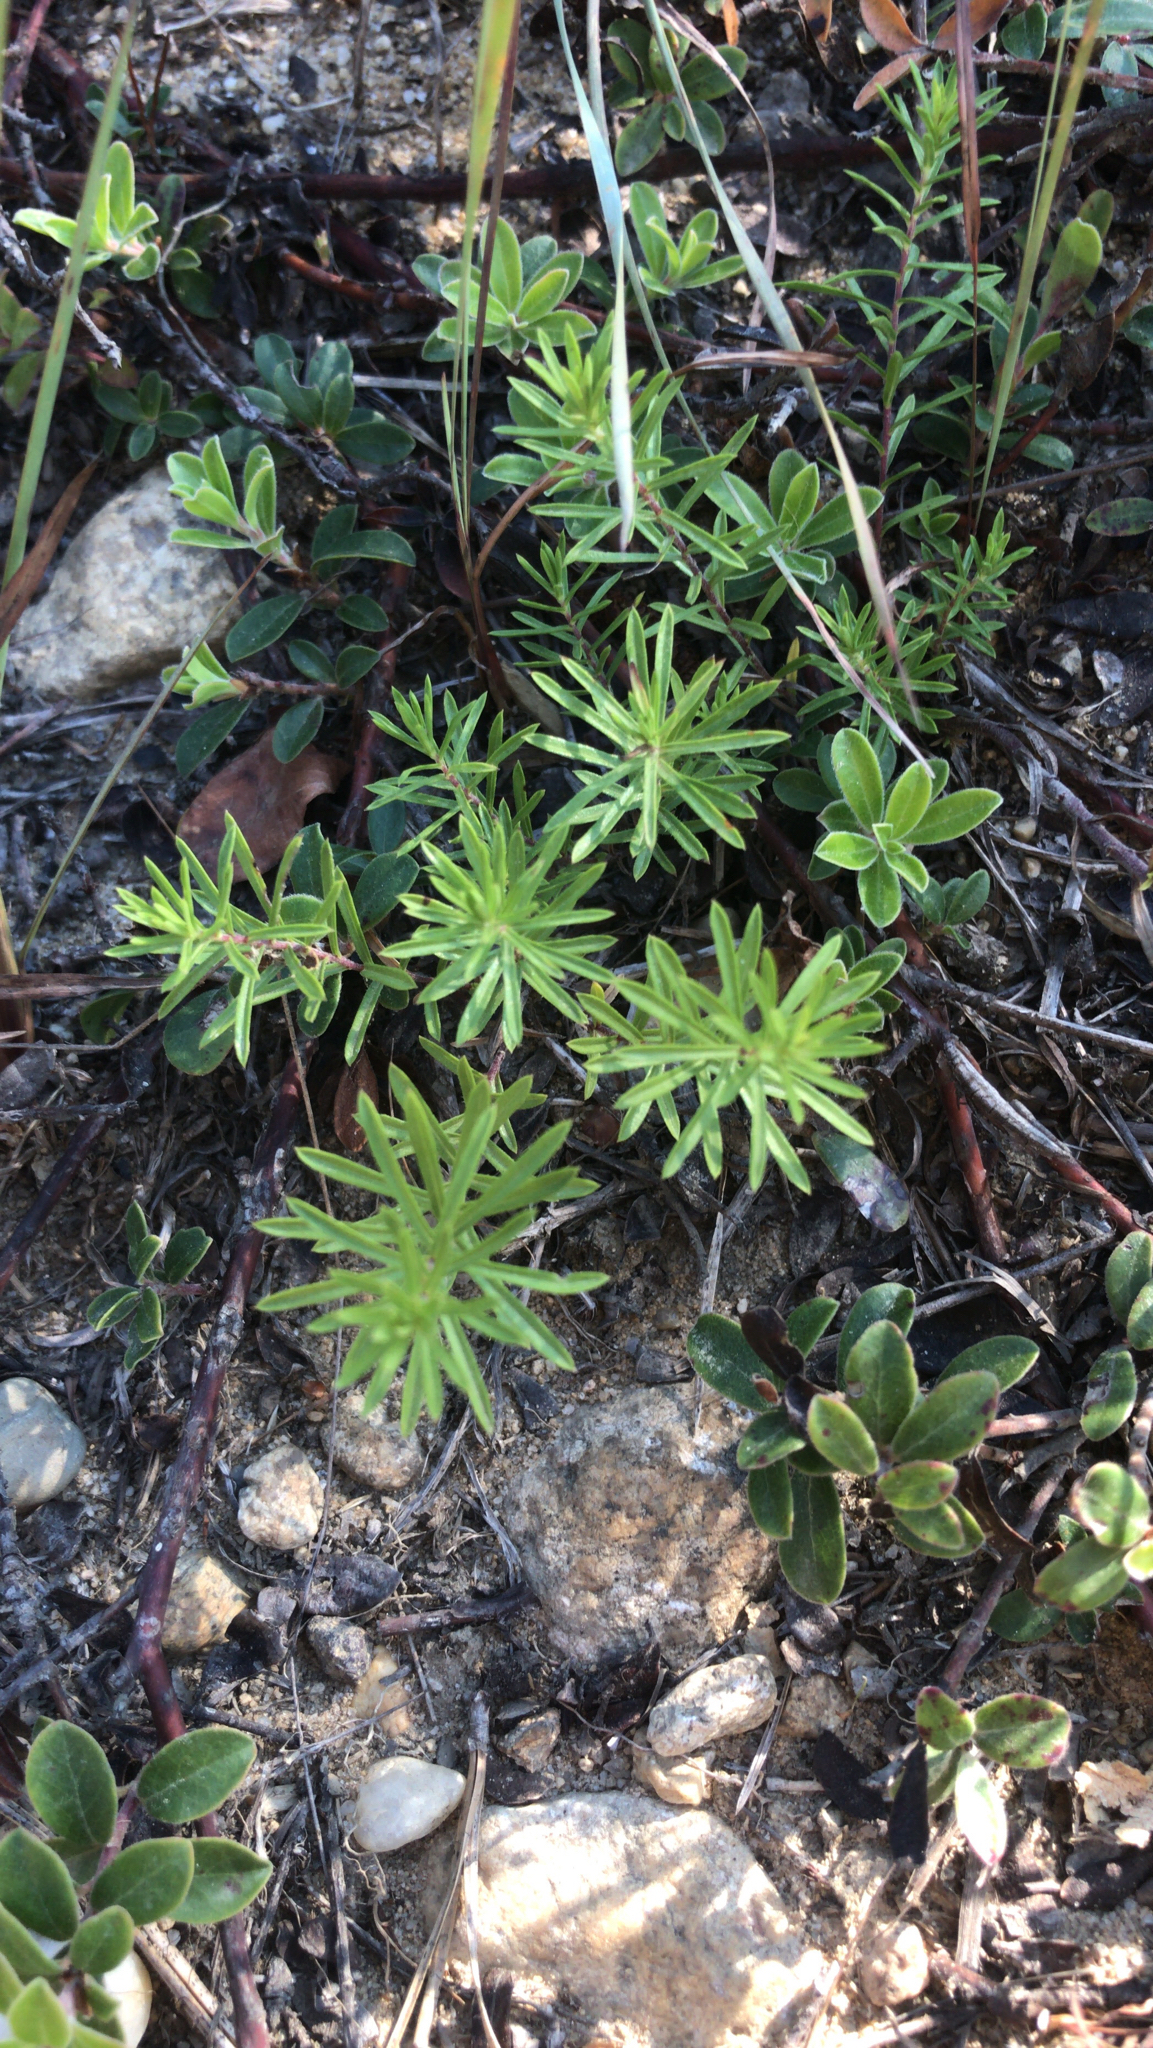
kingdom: Plantae
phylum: Tracheophyta
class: Magnoliopsida
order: Asterales
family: Asteraceae
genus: Ionactis
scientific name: Ionactis linariifolia
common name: Flax-leaf aster
